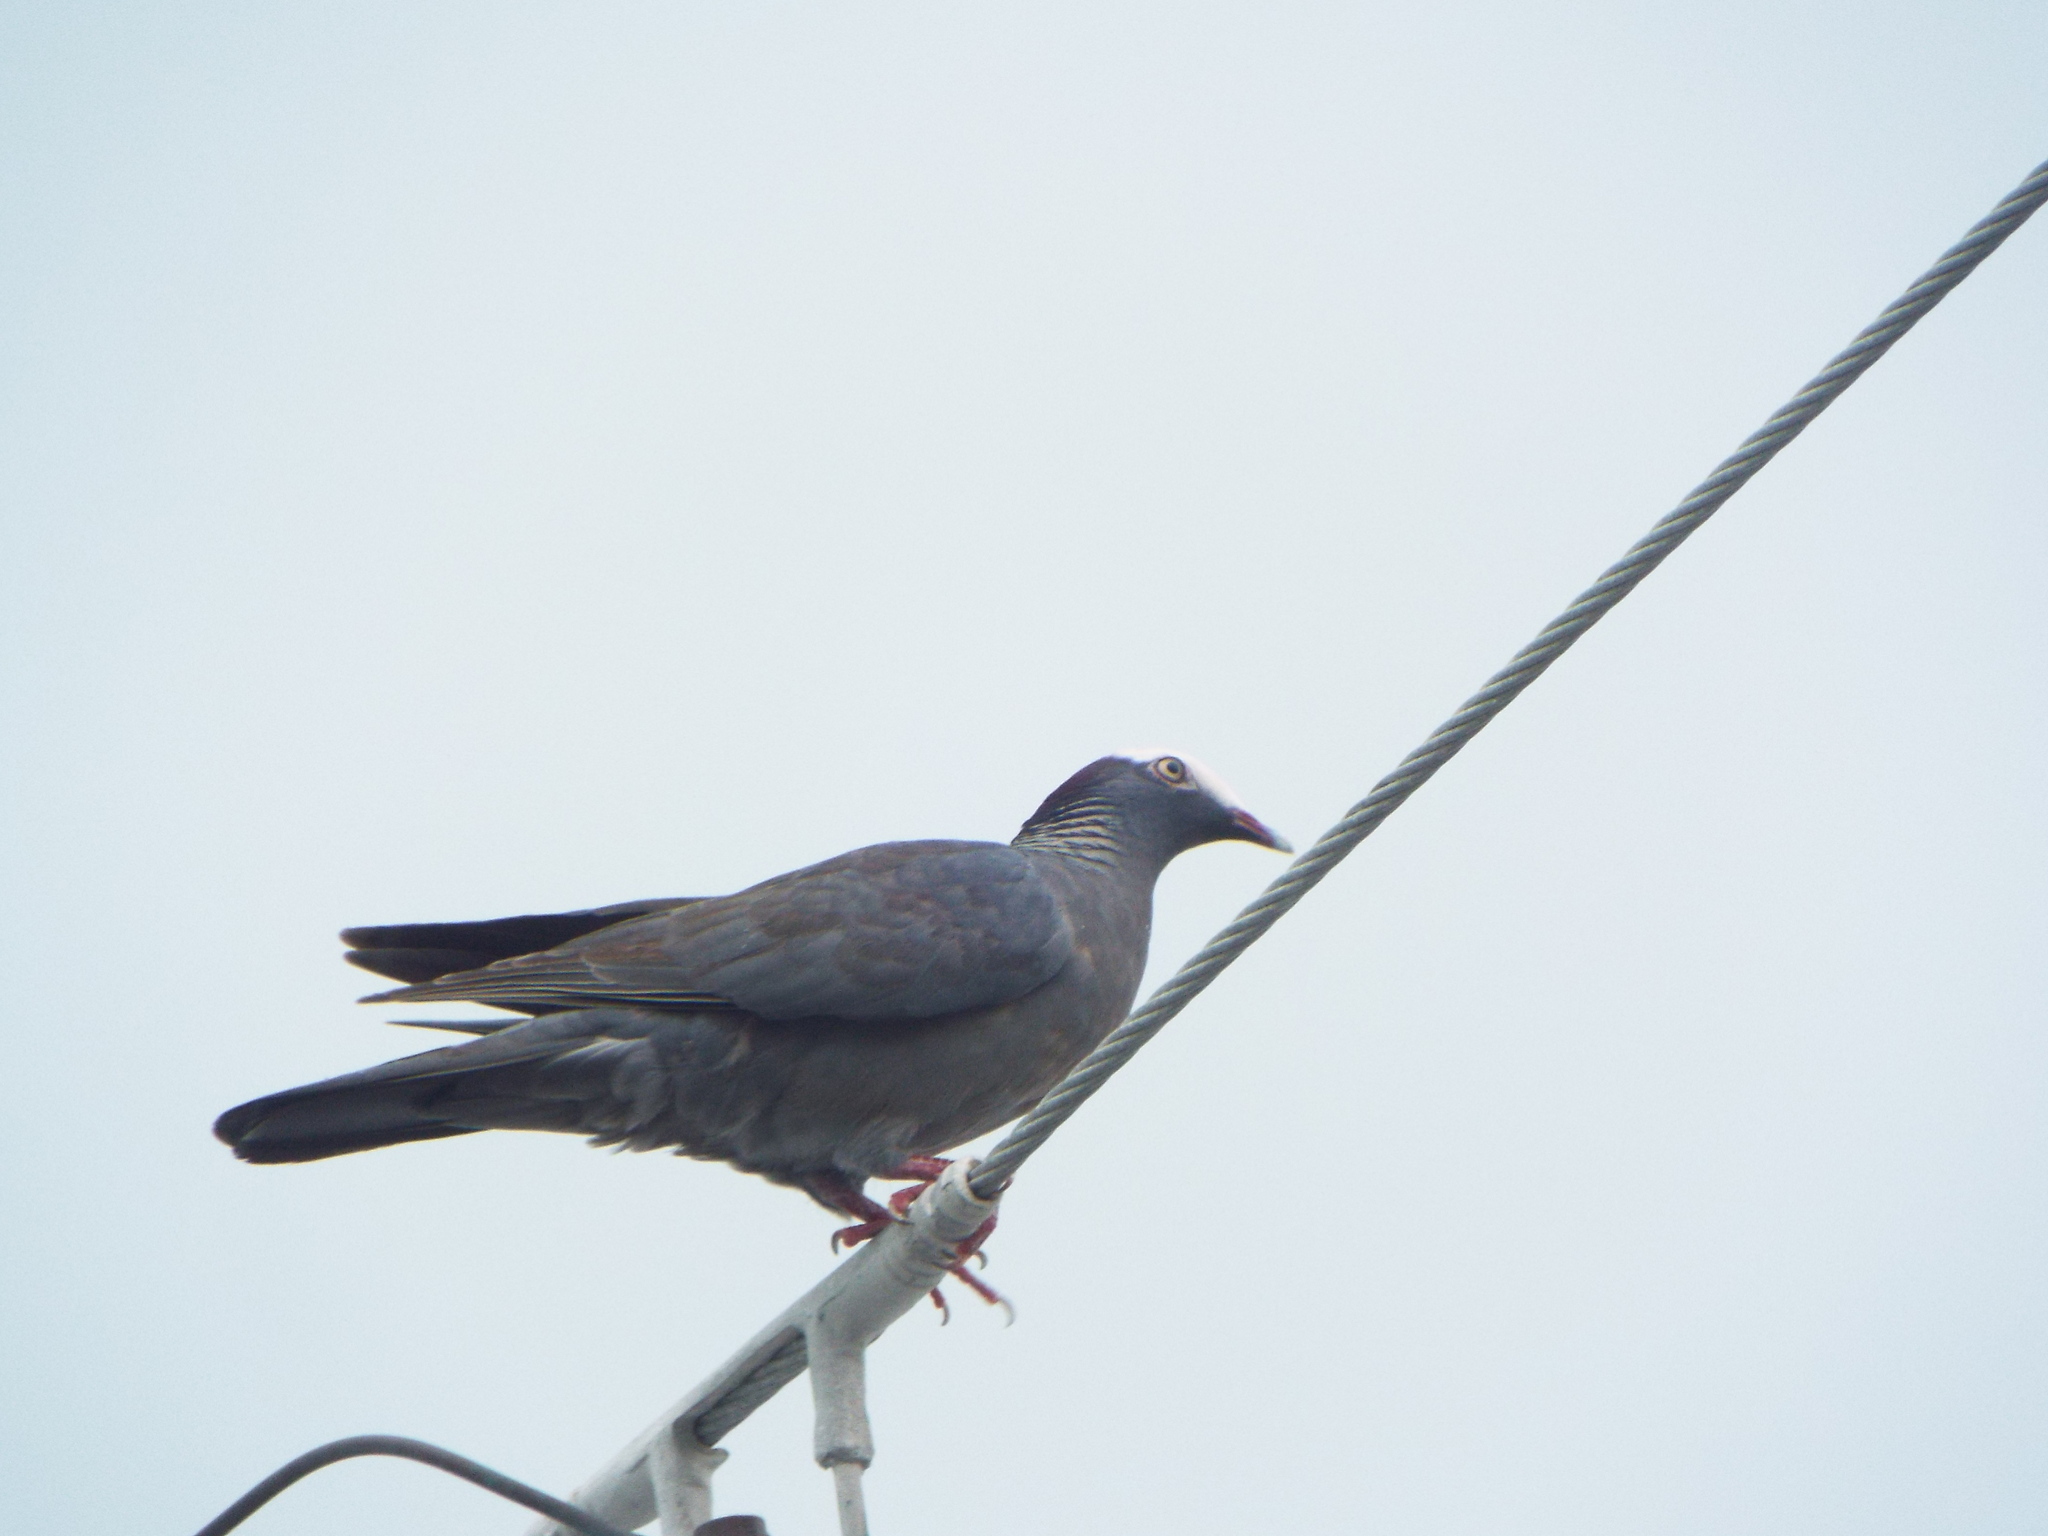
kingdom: Animalia
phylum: Chordata
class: Aves
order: Columbiformes
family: Columbidae
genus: Patagioenas
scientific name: Patagioenas leucocephala
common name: White-crowned pigeon
